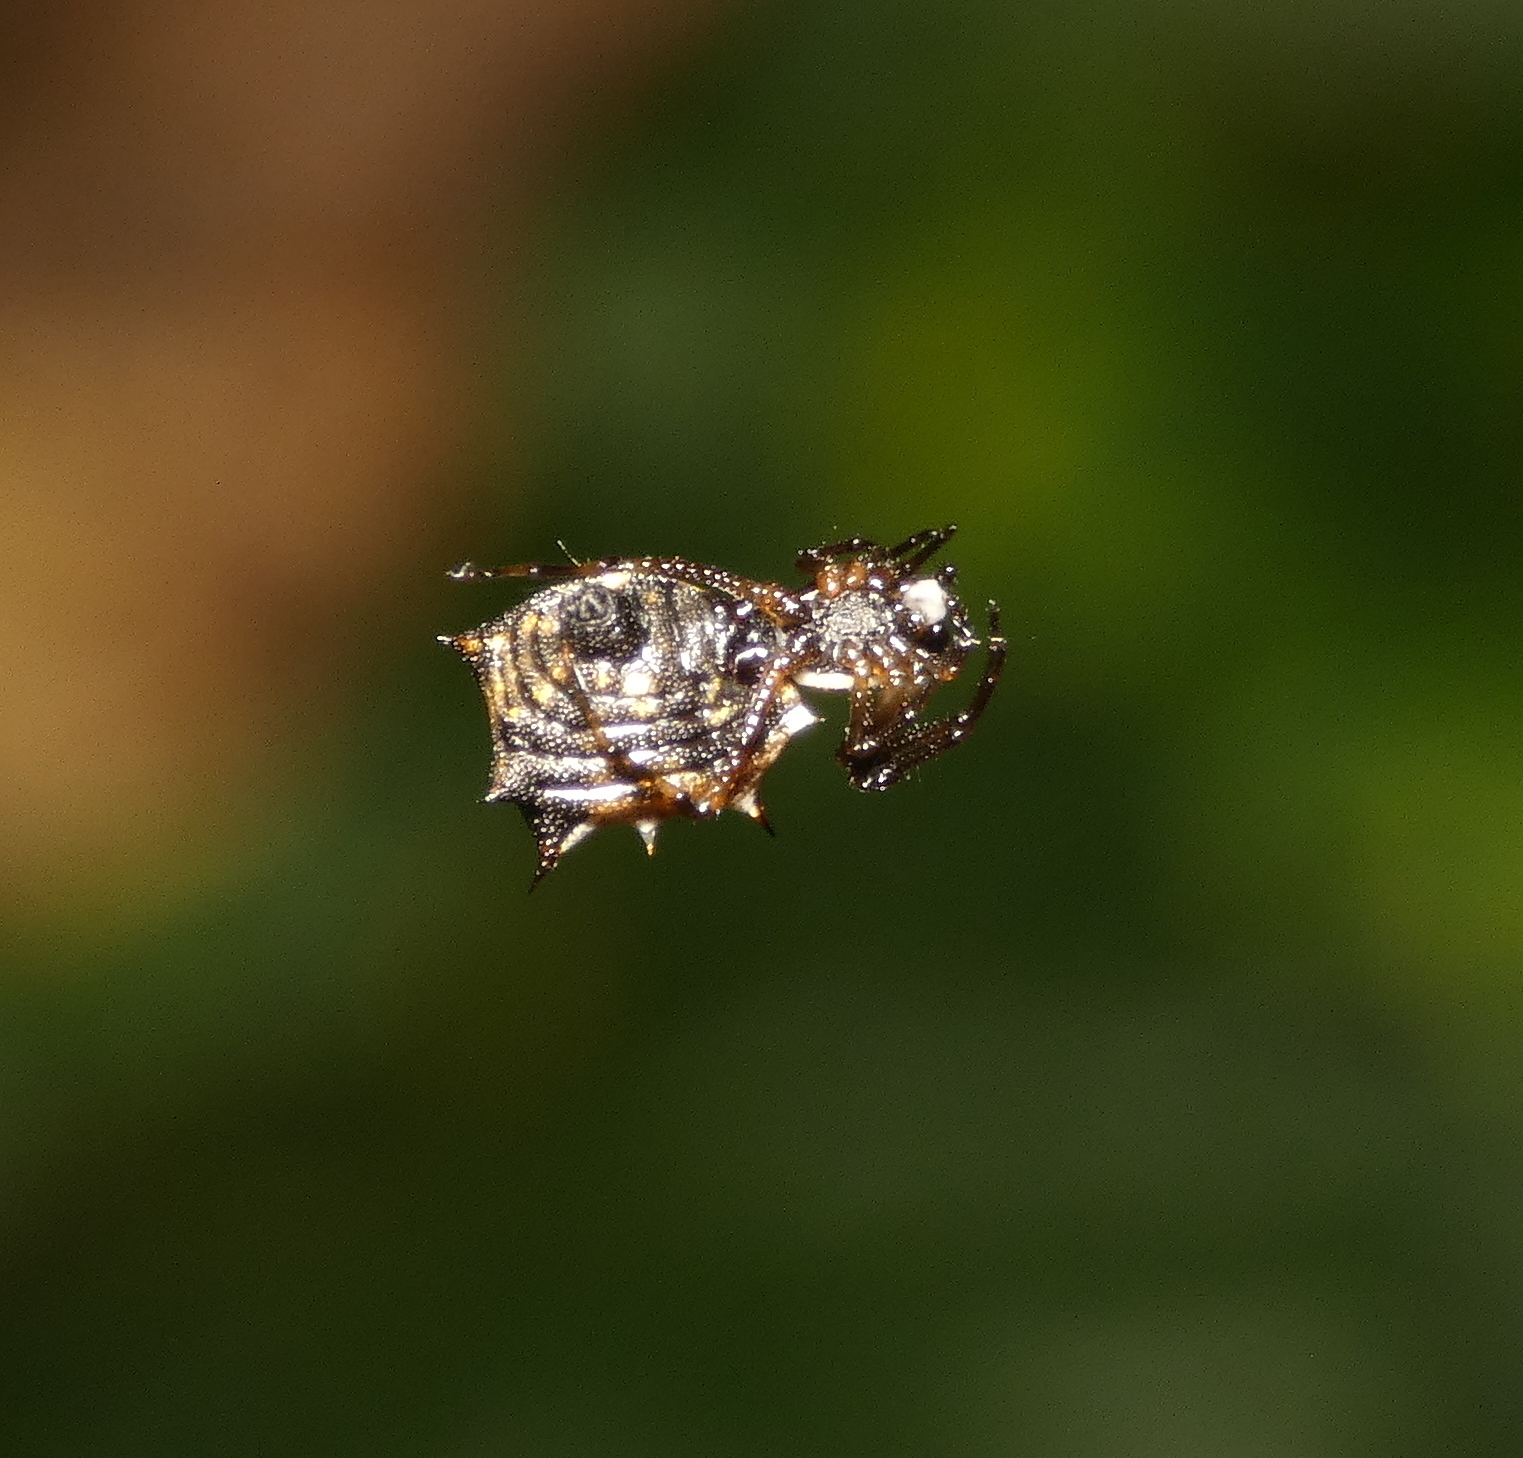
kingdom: Animalia
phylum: Arthropoda
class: Arachnida
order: Araneae
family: Araneidae
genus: Micrathena
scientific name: Micrathena picta
